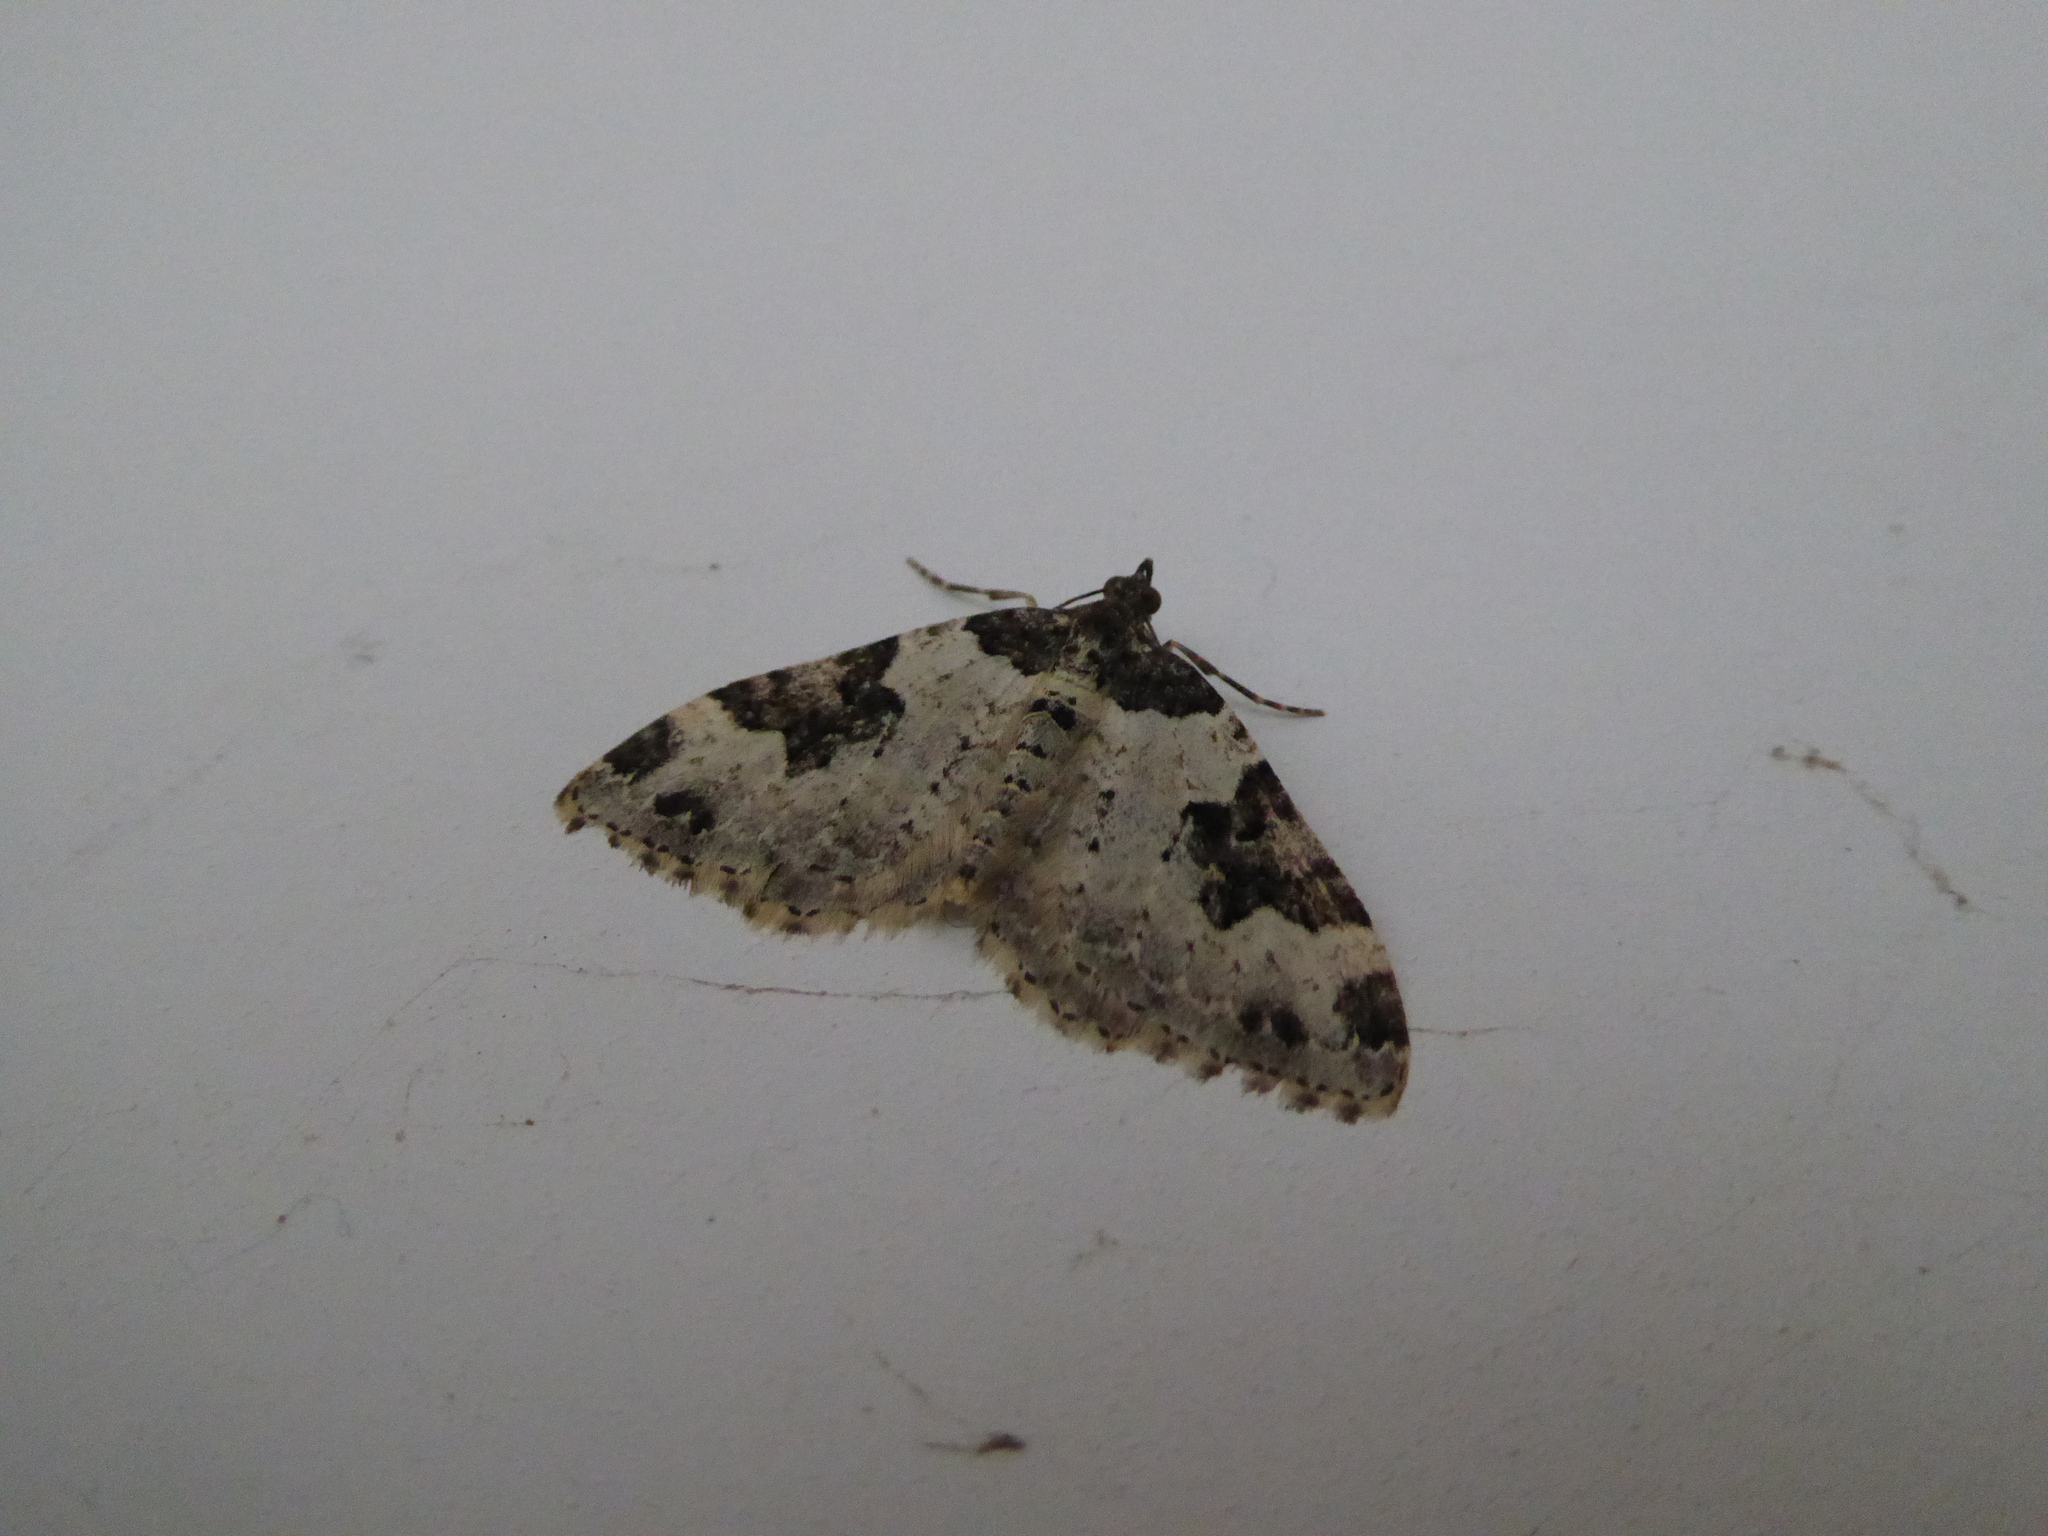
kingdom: Animalia
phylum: Arthropoda
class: Insecta
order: Lepidoptera
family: Geometridae
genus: Xanthorhoe
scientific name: Xanthorhoe fluctuata
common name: Garden carpet
